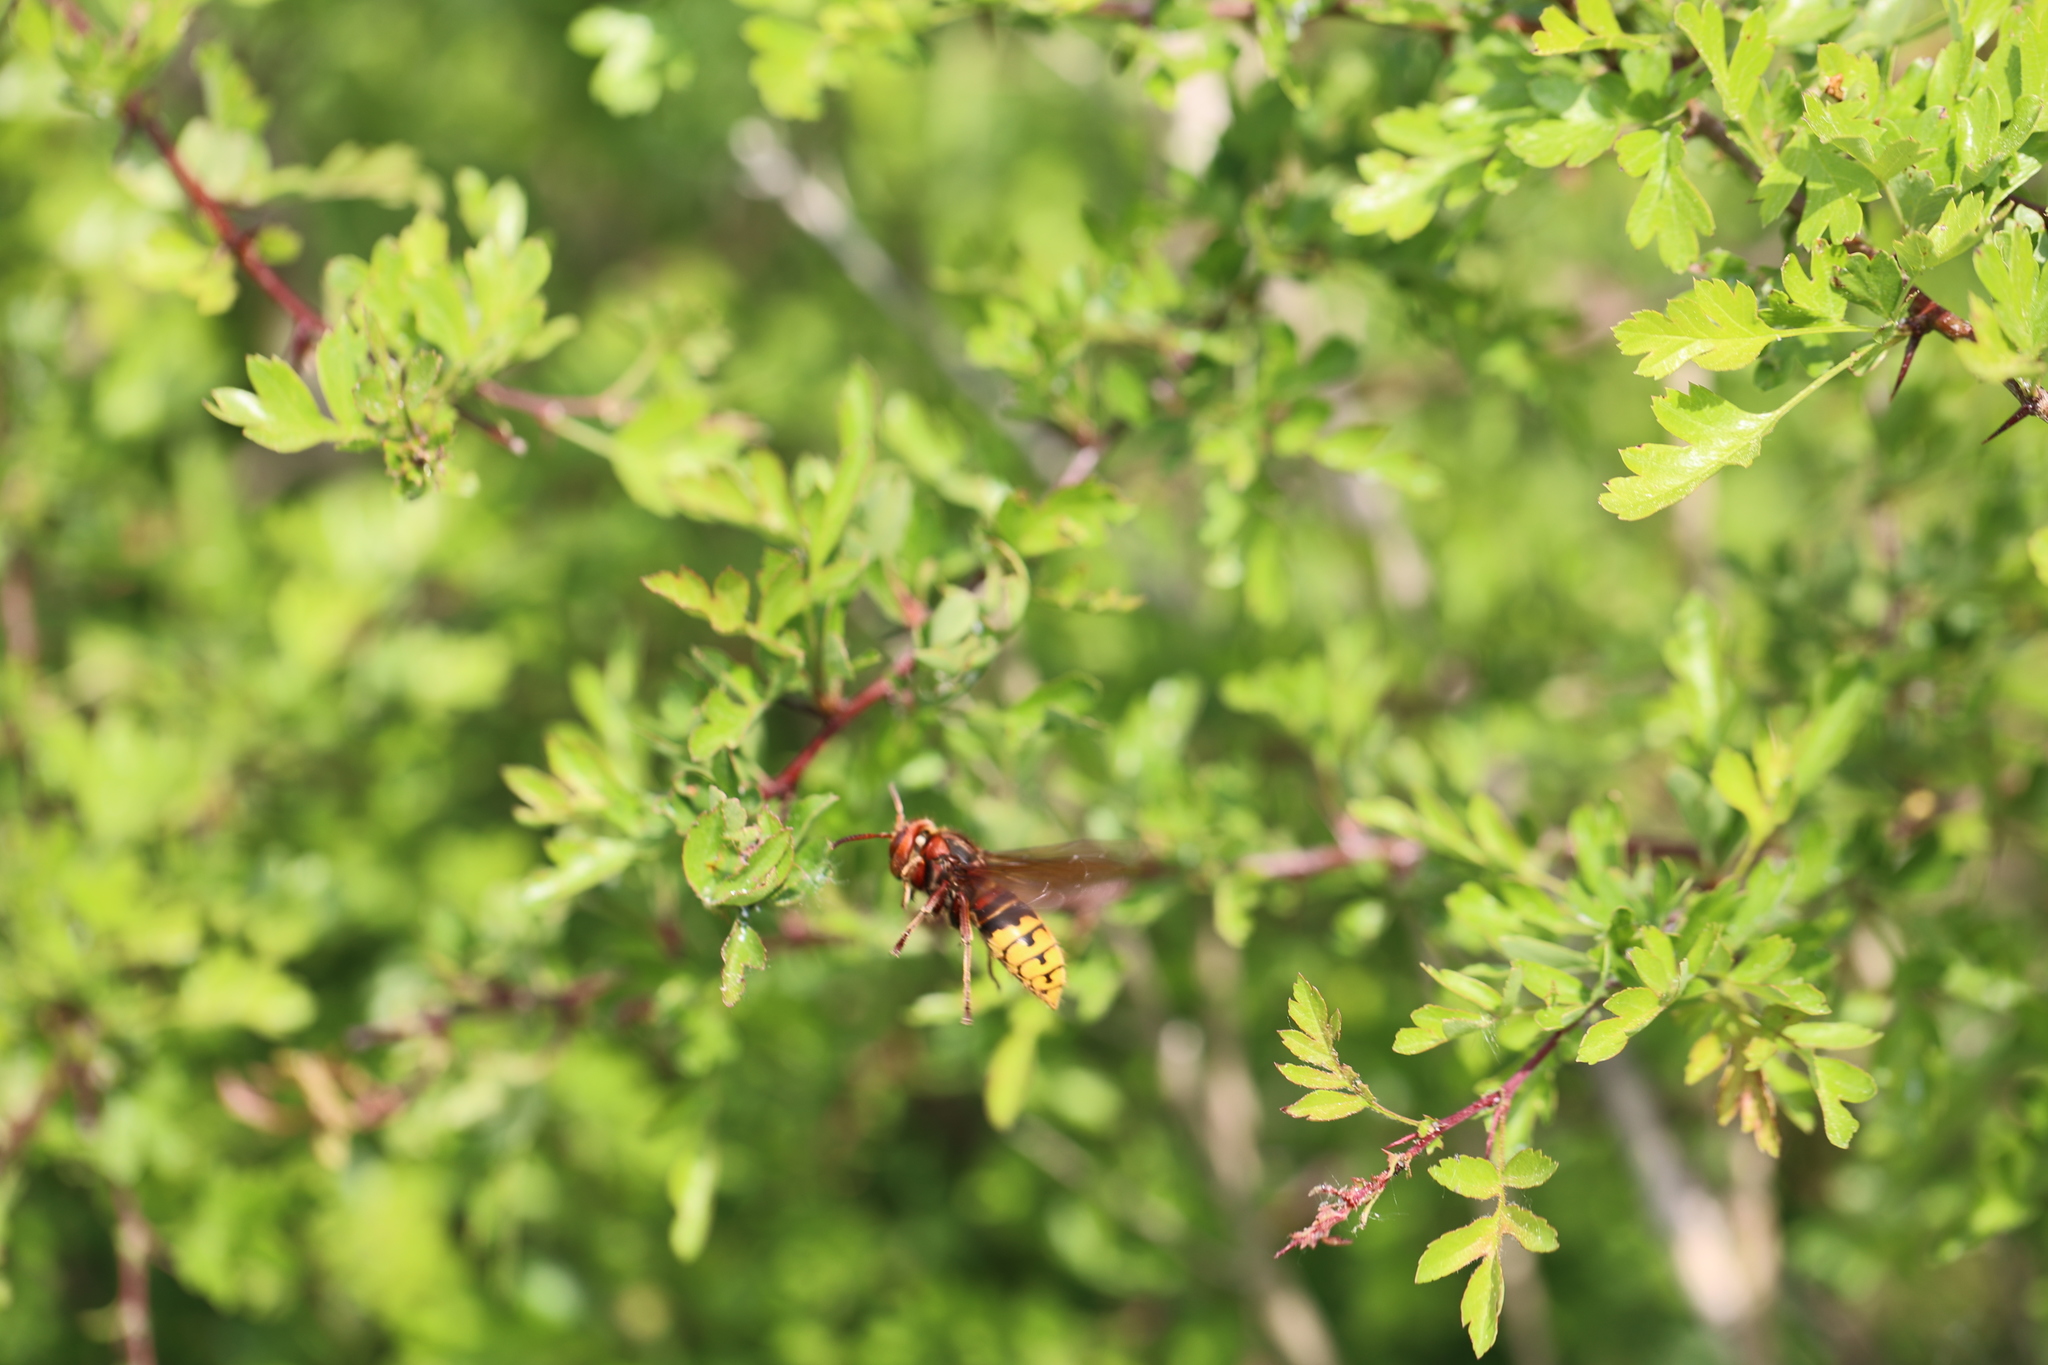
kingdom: Animalia
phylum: Arthropoda
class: Insecta
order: Hymenoptera
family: Vespidae
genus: Vespa
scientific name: Vespa crabro
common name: Hornet
